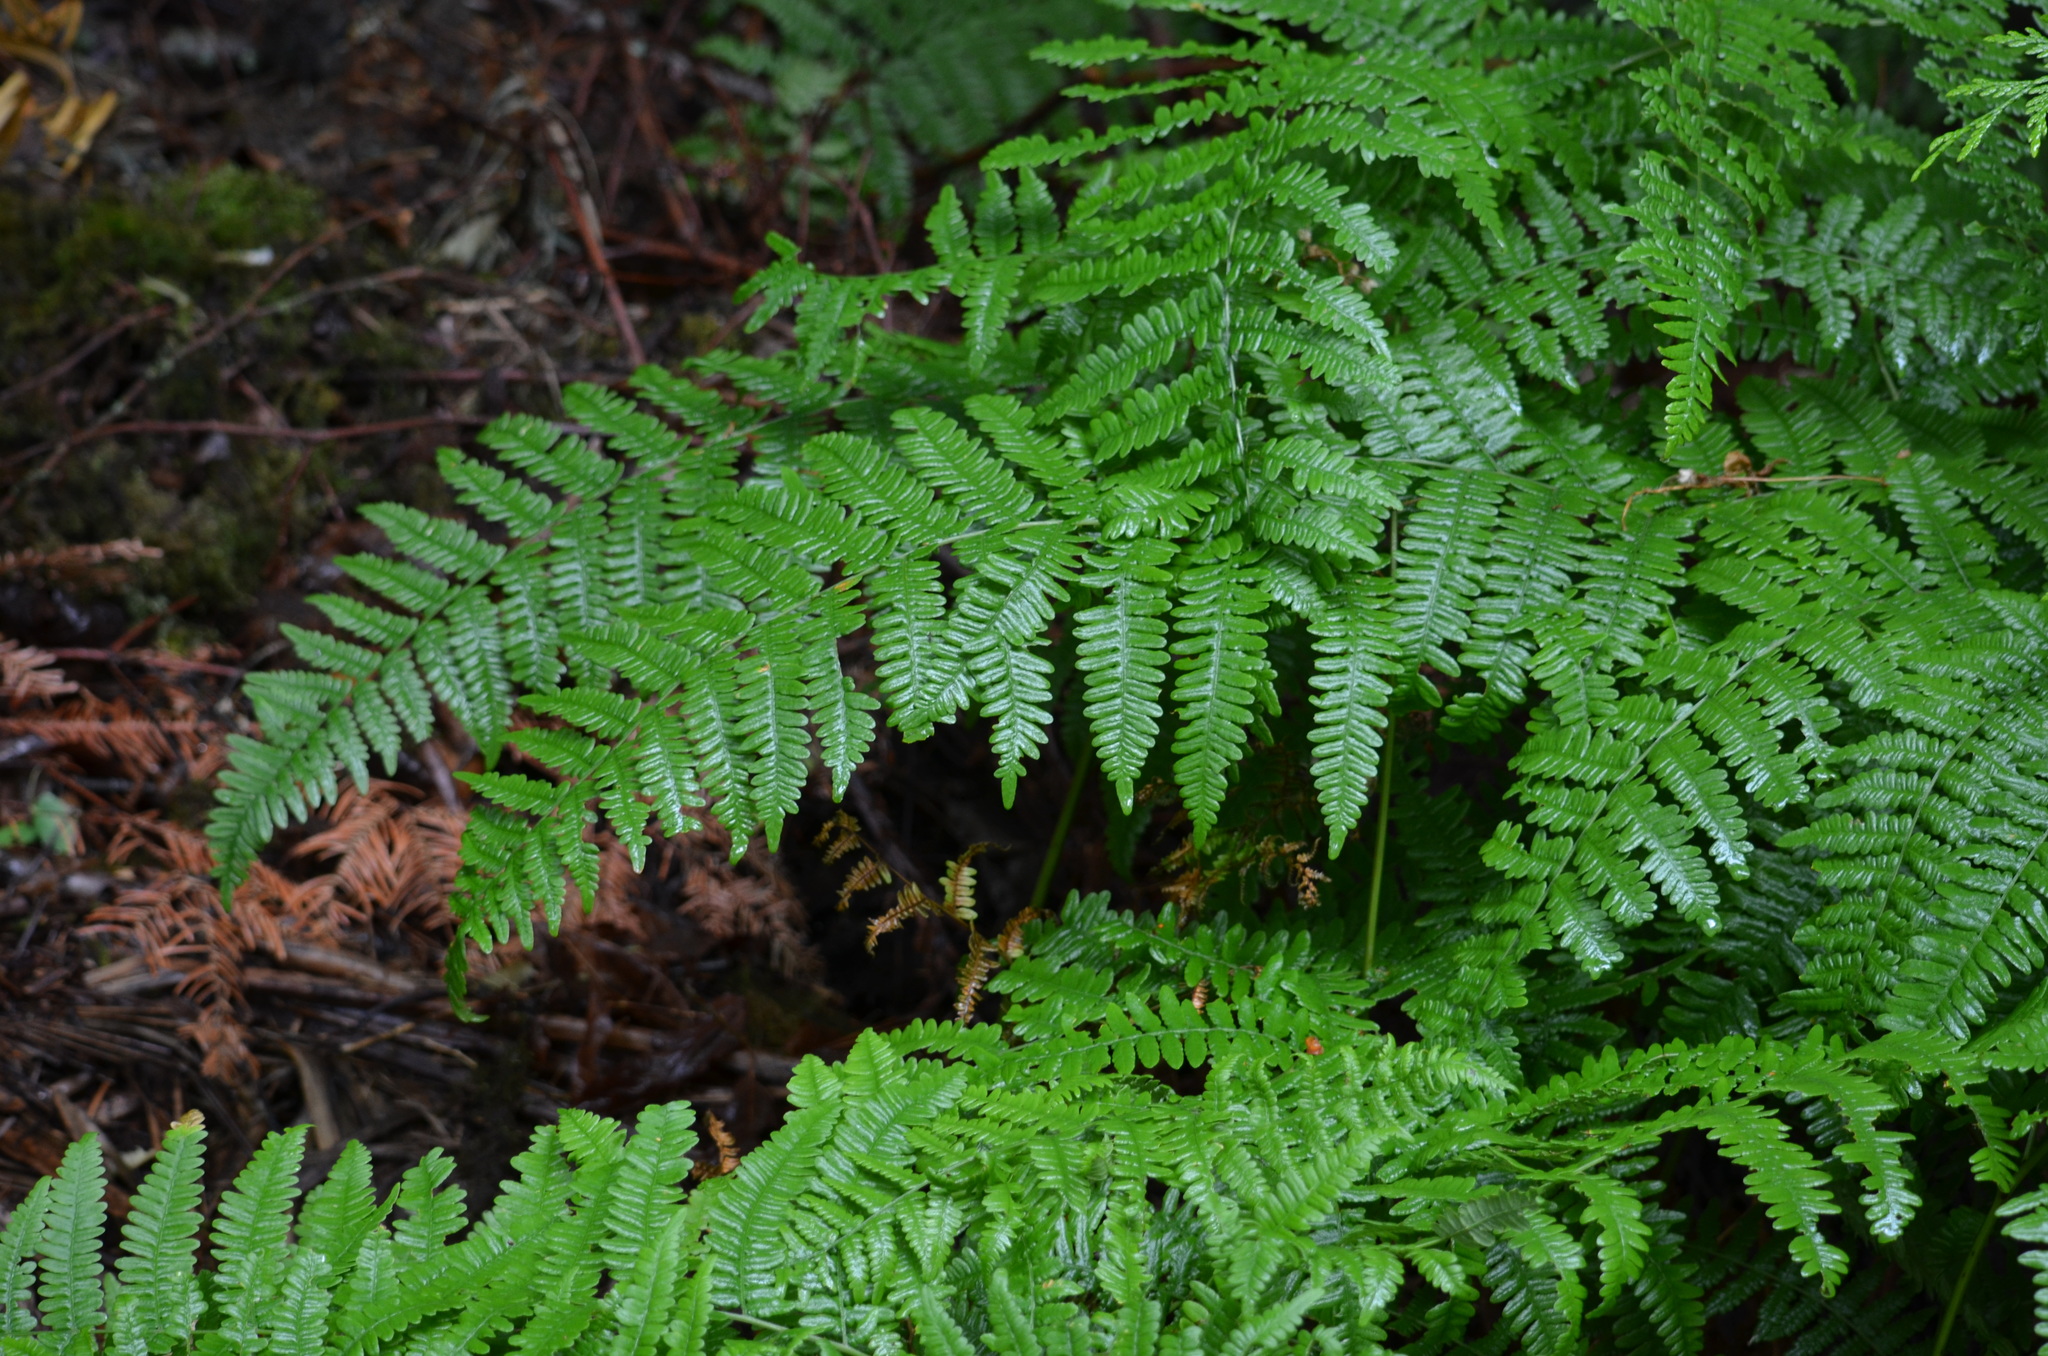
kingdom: Plantae
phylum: Tracheophyta
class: Polypodiopsida
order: Polypodiales
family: Dennstaedtiaceae
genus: Pteridium
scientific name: Pteridium aquilinum
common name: Bracken
